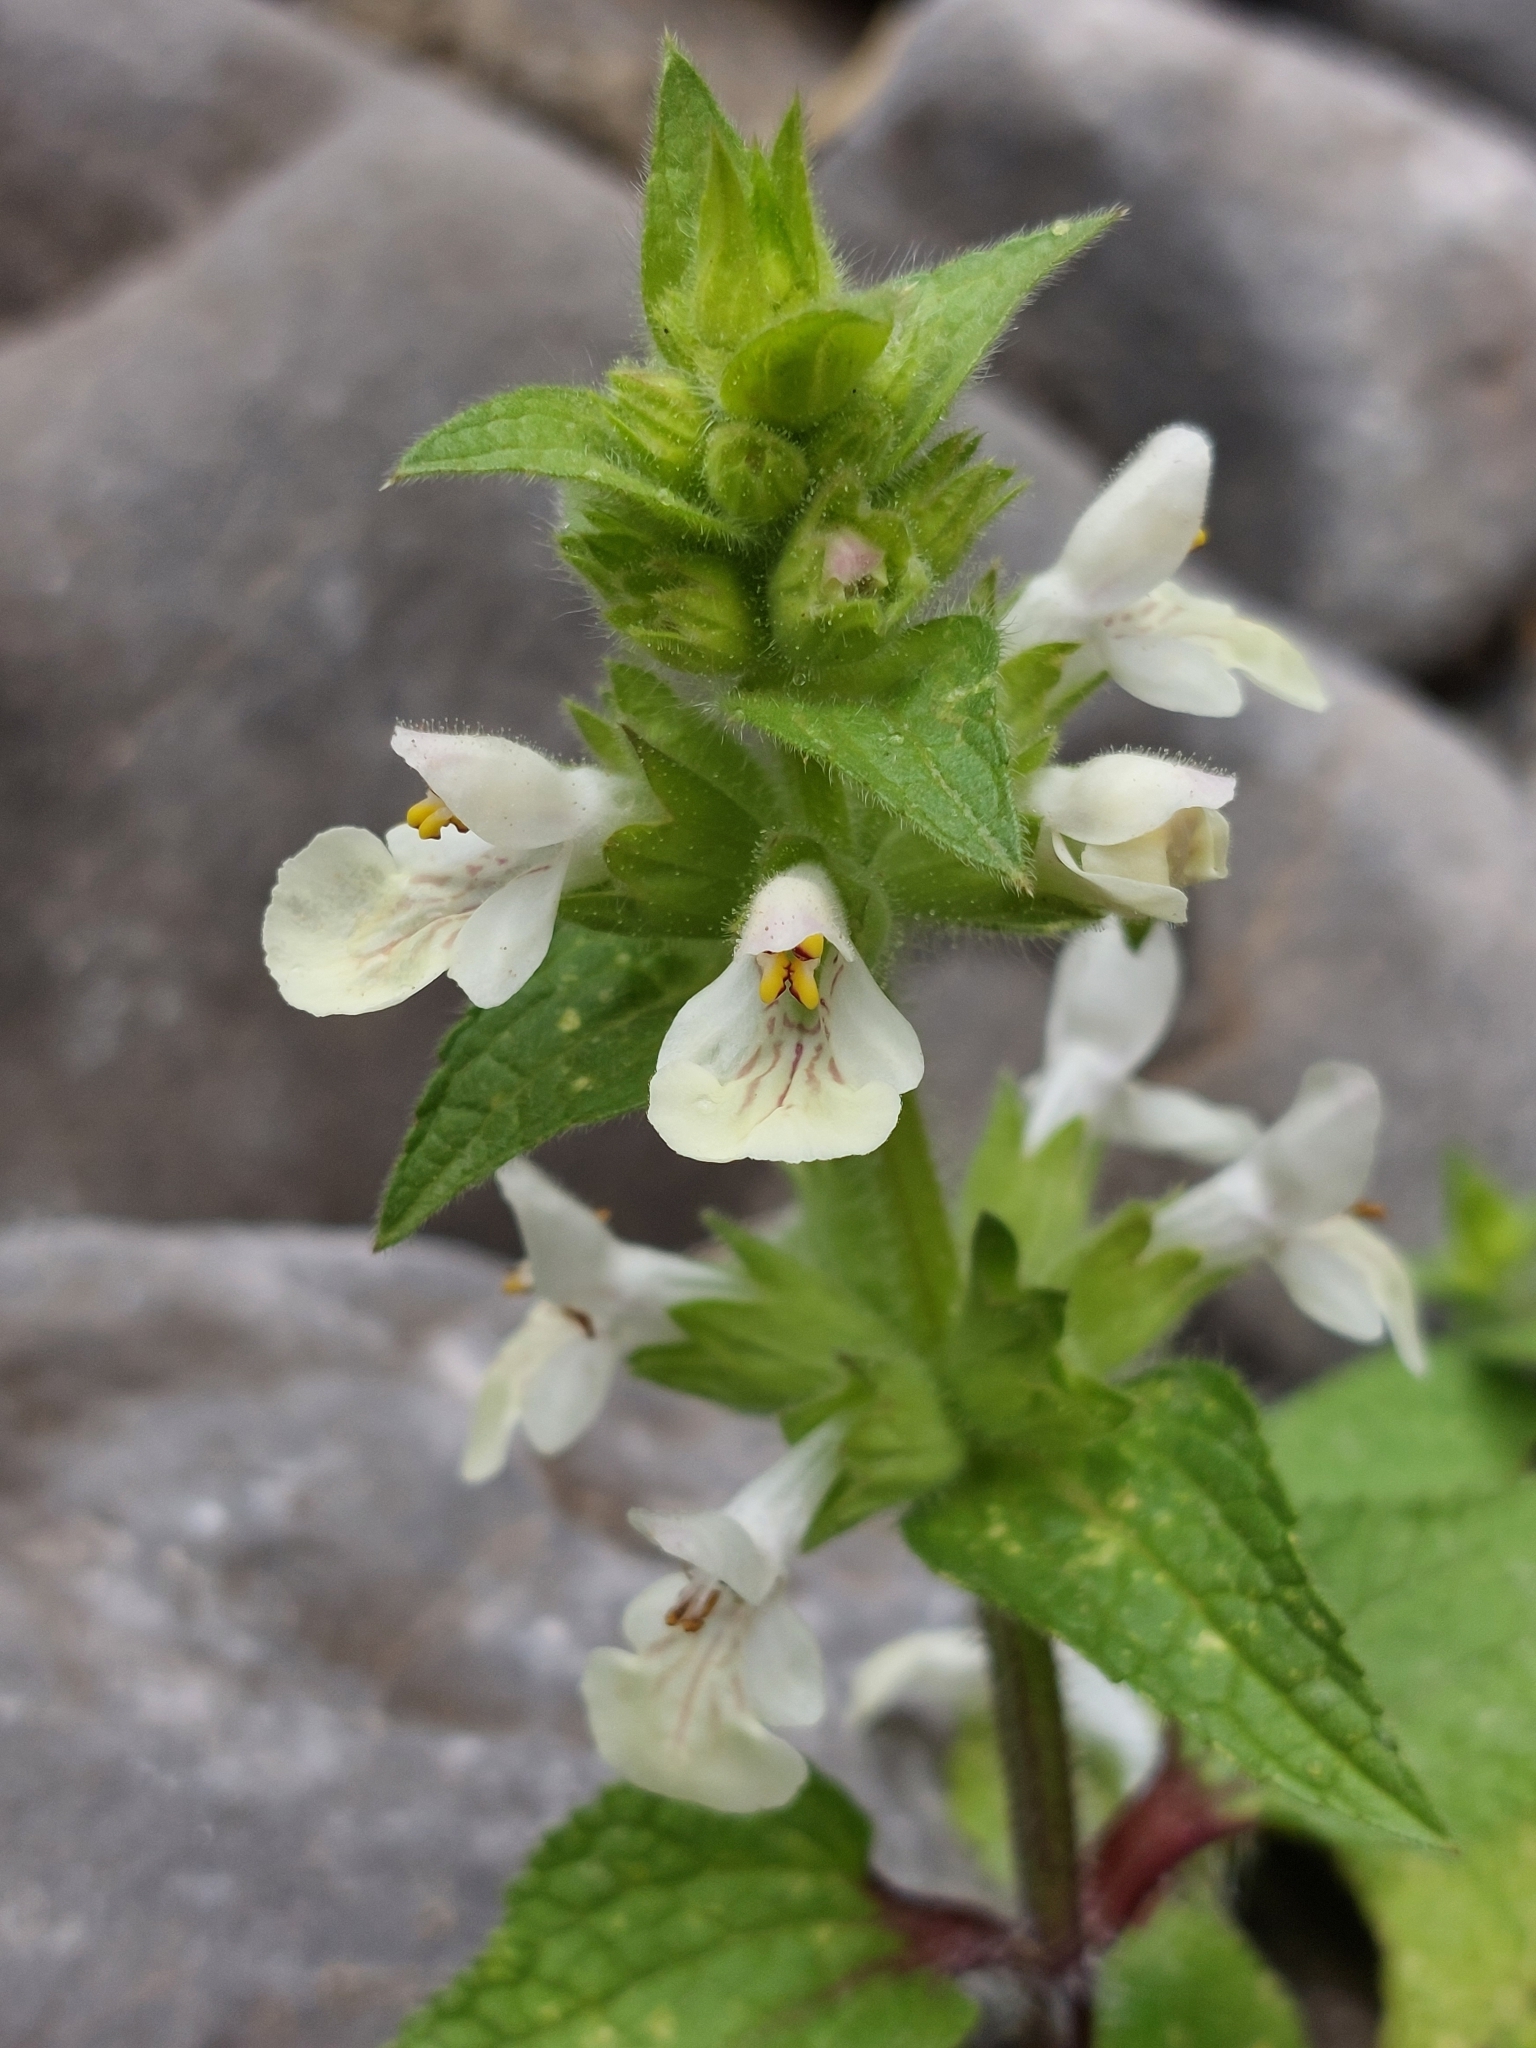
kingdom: Plantae
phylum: Tracheophyta
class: Magnoliopsida
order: Lamiales
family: Lamiaceae
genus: Stachys
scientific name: Stachys spinulosa
